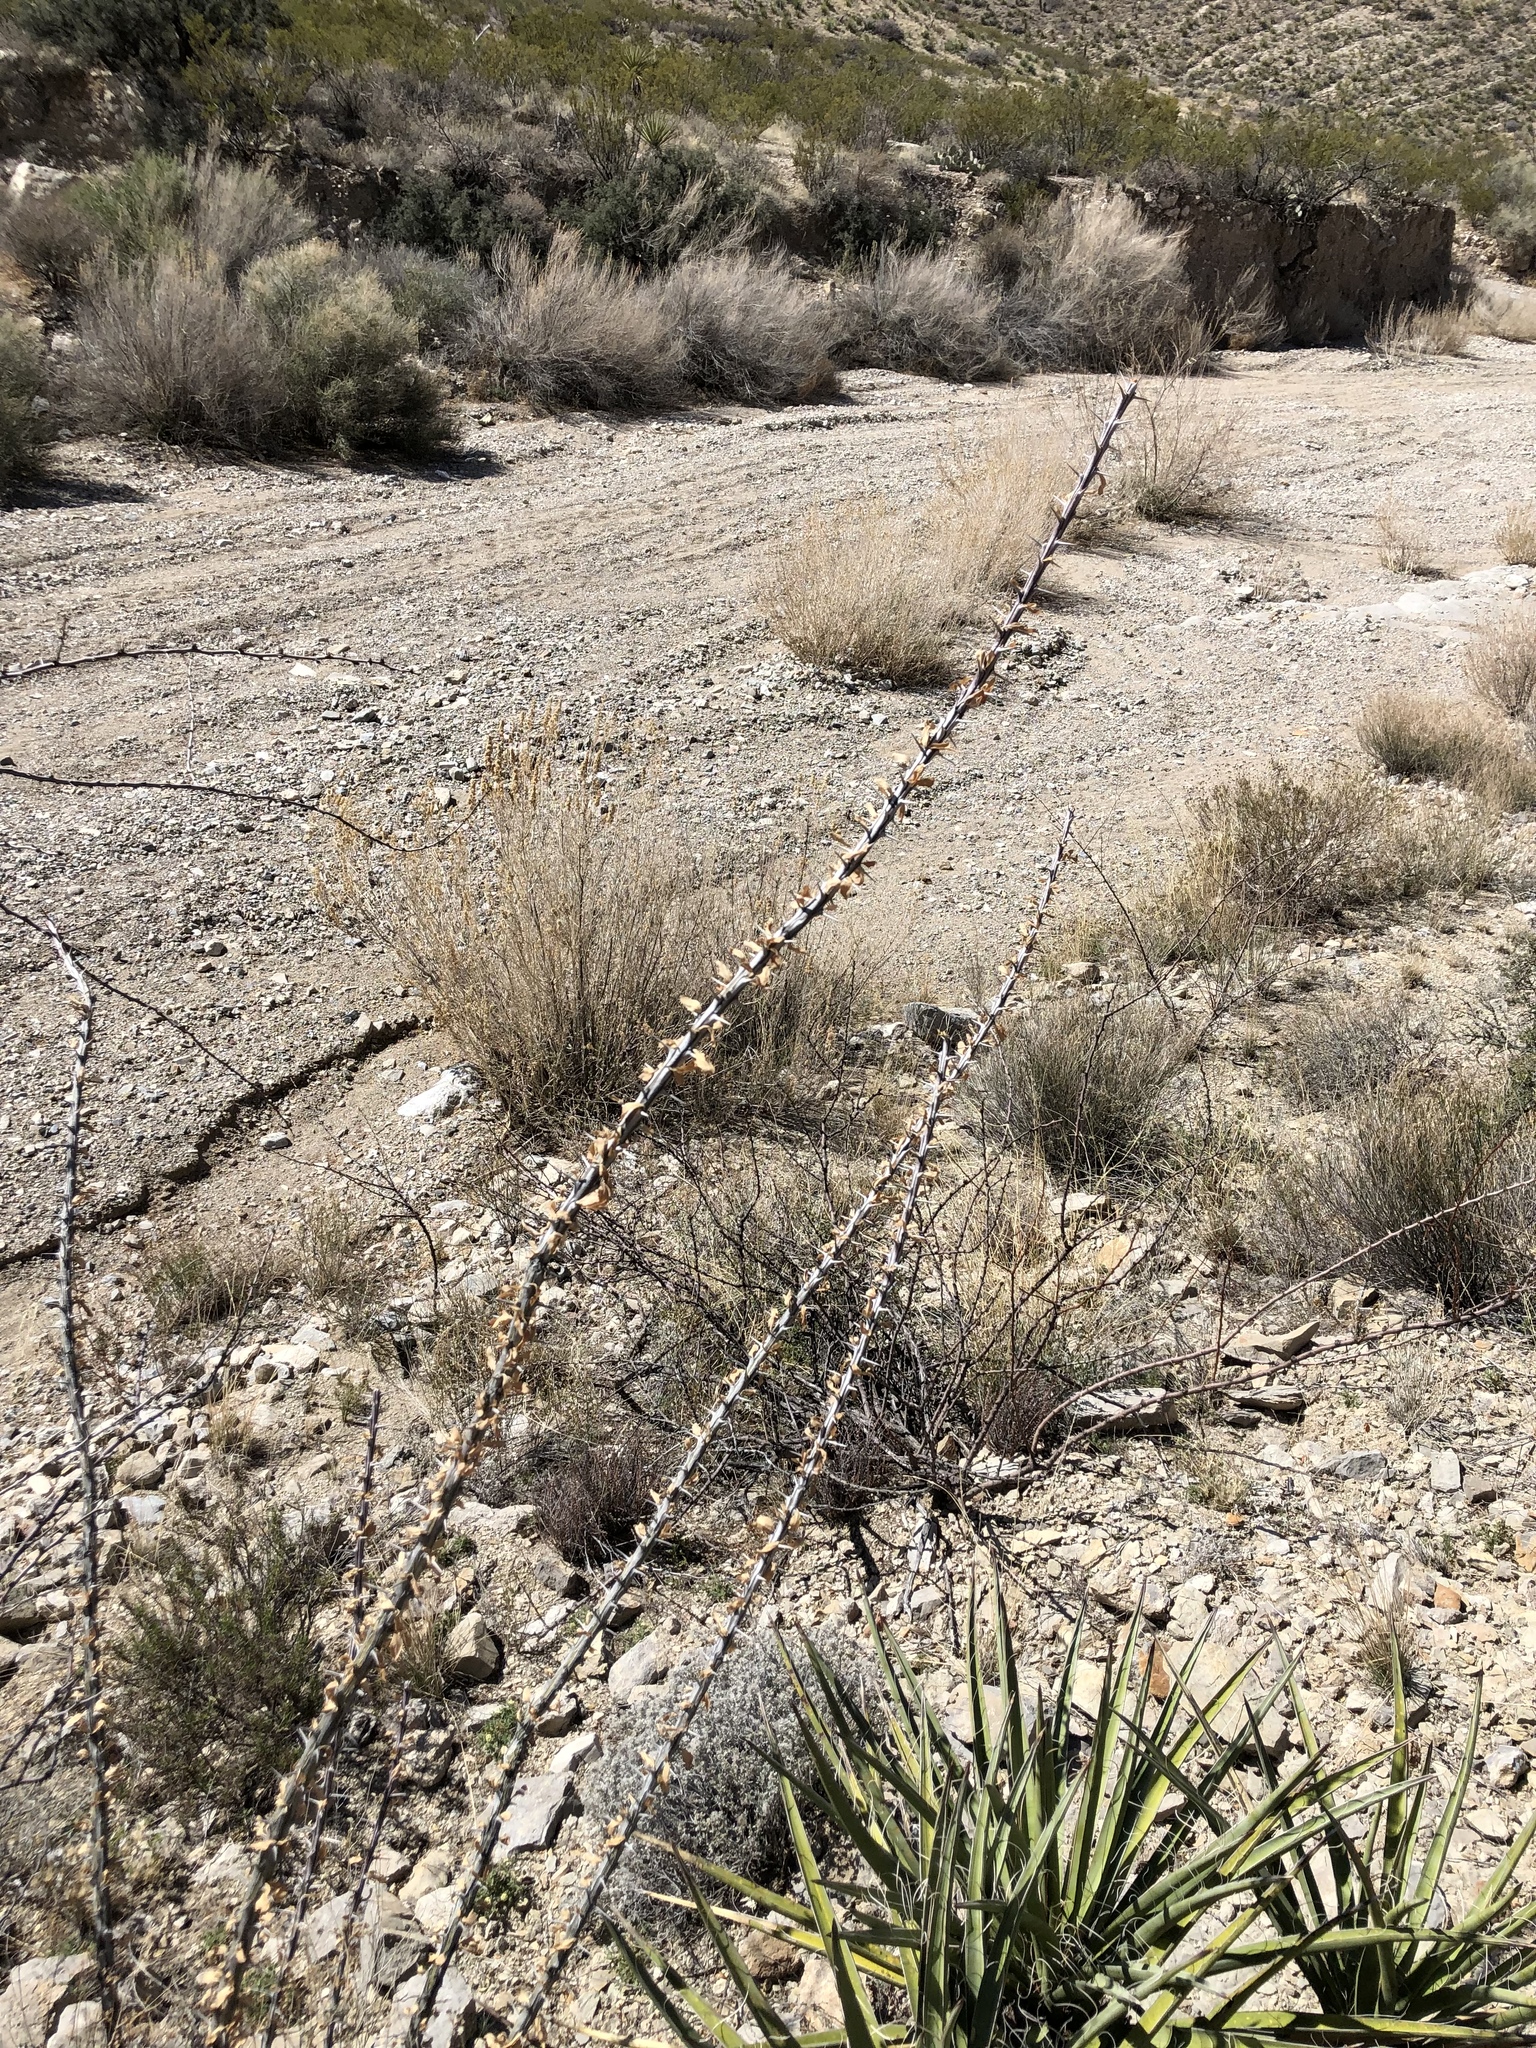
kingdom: Plantae
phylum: Tracheophyta
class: Magnoliopsida
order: Ericales
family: Fouquieriaceae
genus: Fouquieria
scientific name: Fouquieria splendens
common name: Vine-cactus
